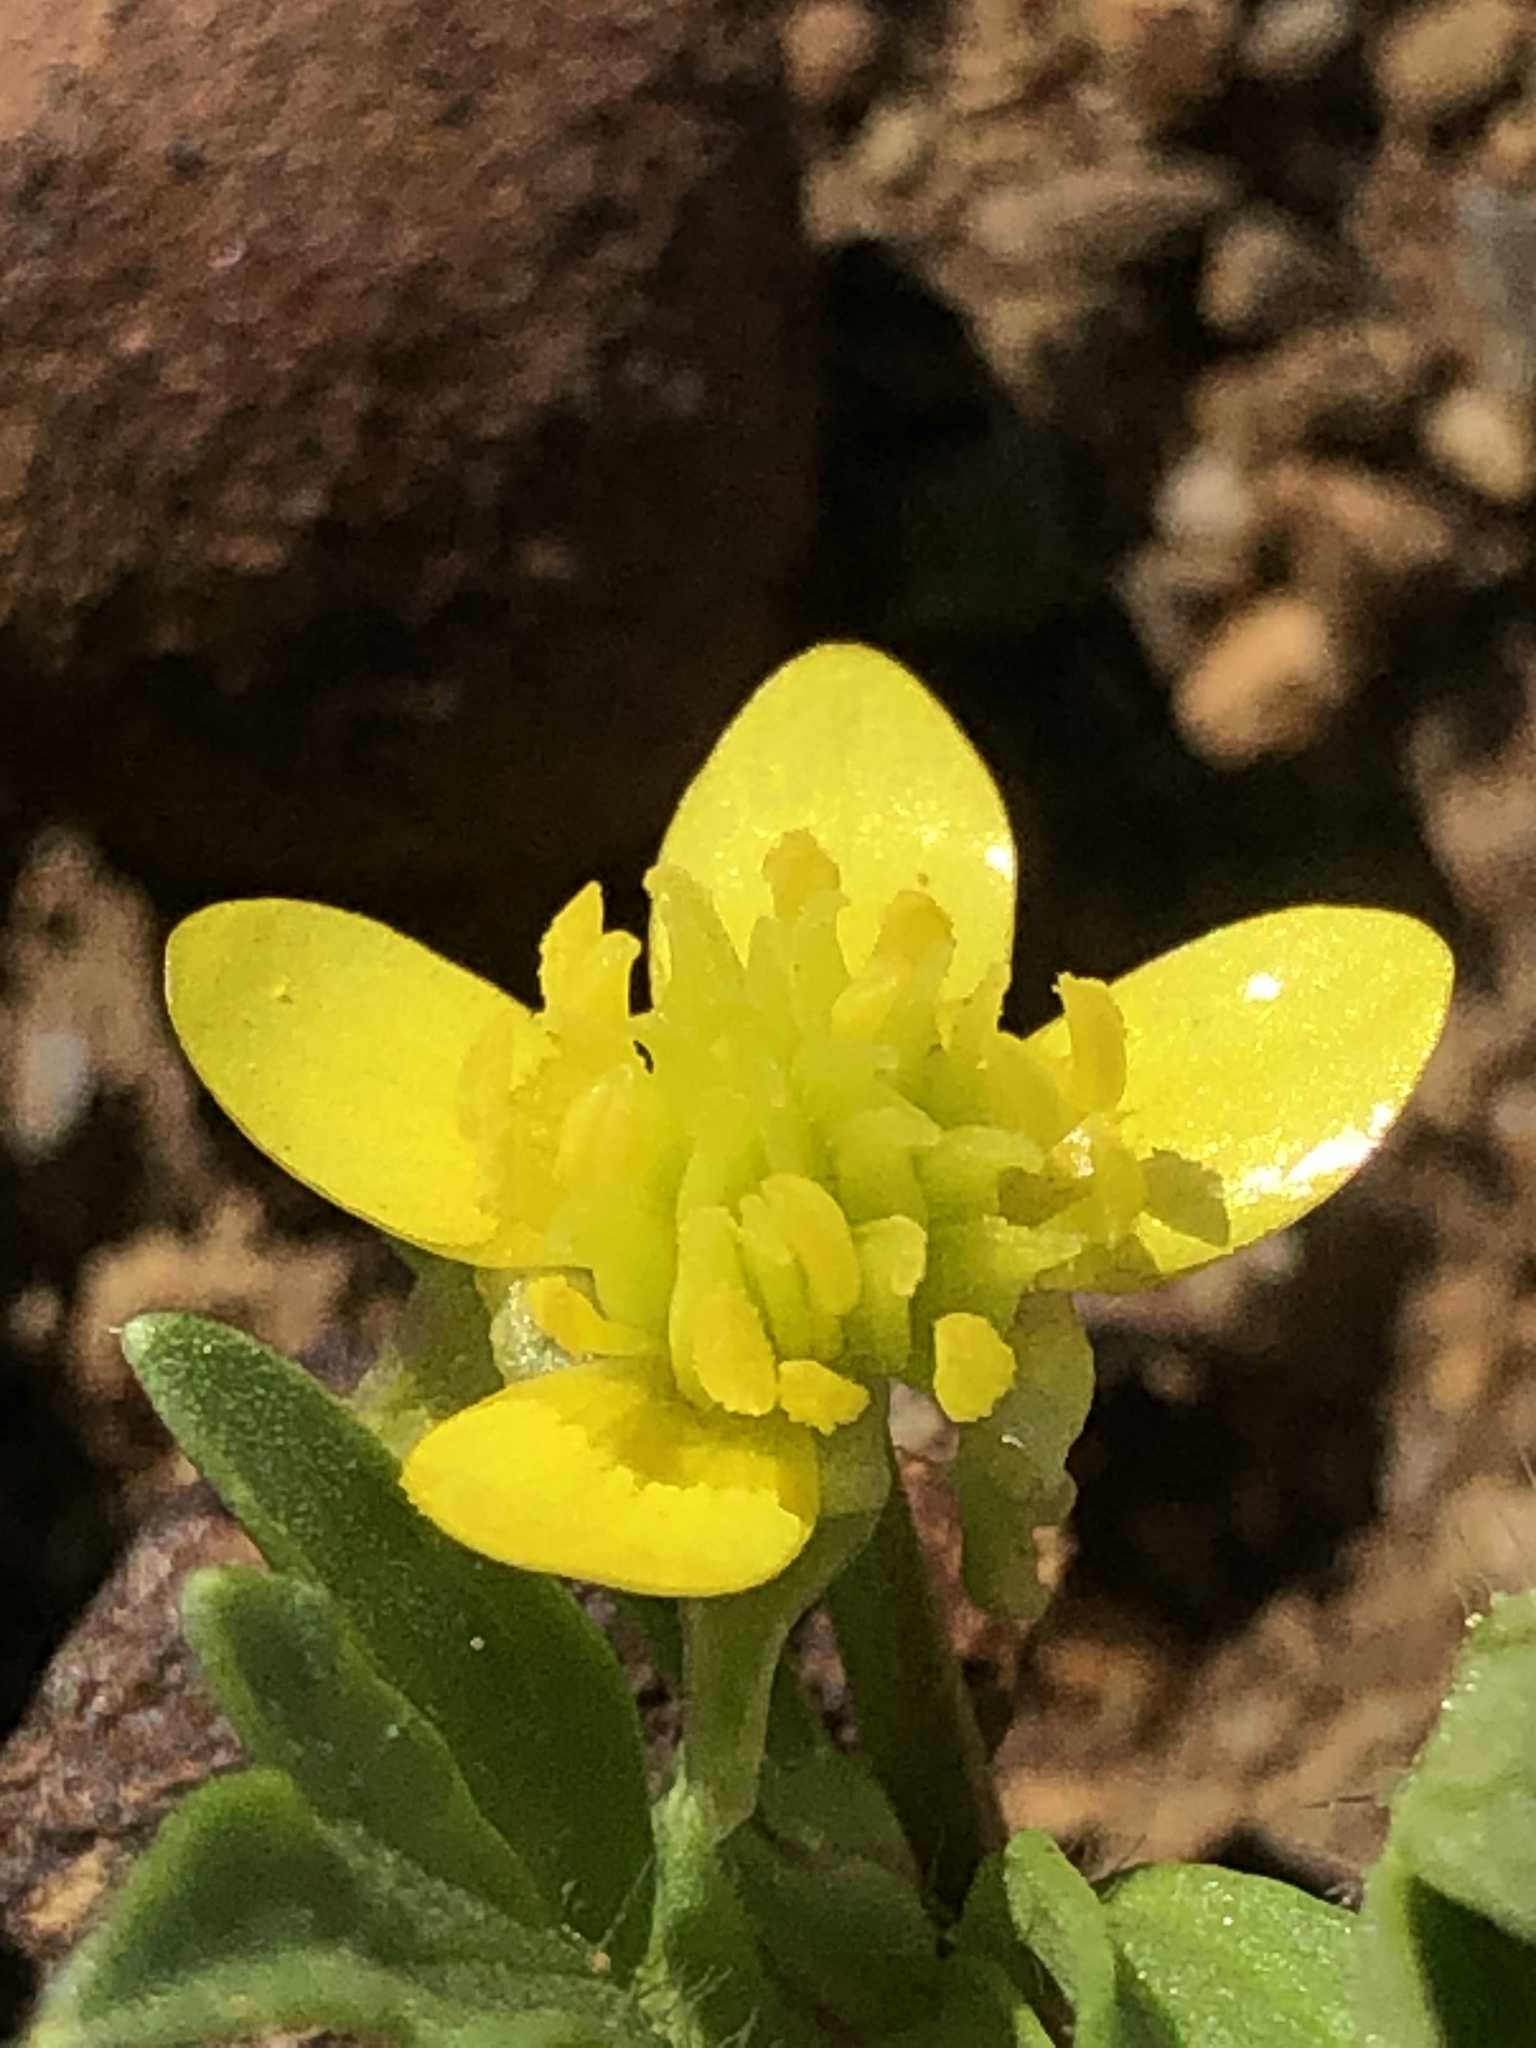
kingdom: Plantae
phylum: Tracheophyta
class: Magnoliopsida
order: Ranunculales
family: Ranunculaceae
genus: Ranunculus
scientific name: Ranunculus muricatus
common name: Rough-fruited buttercup
